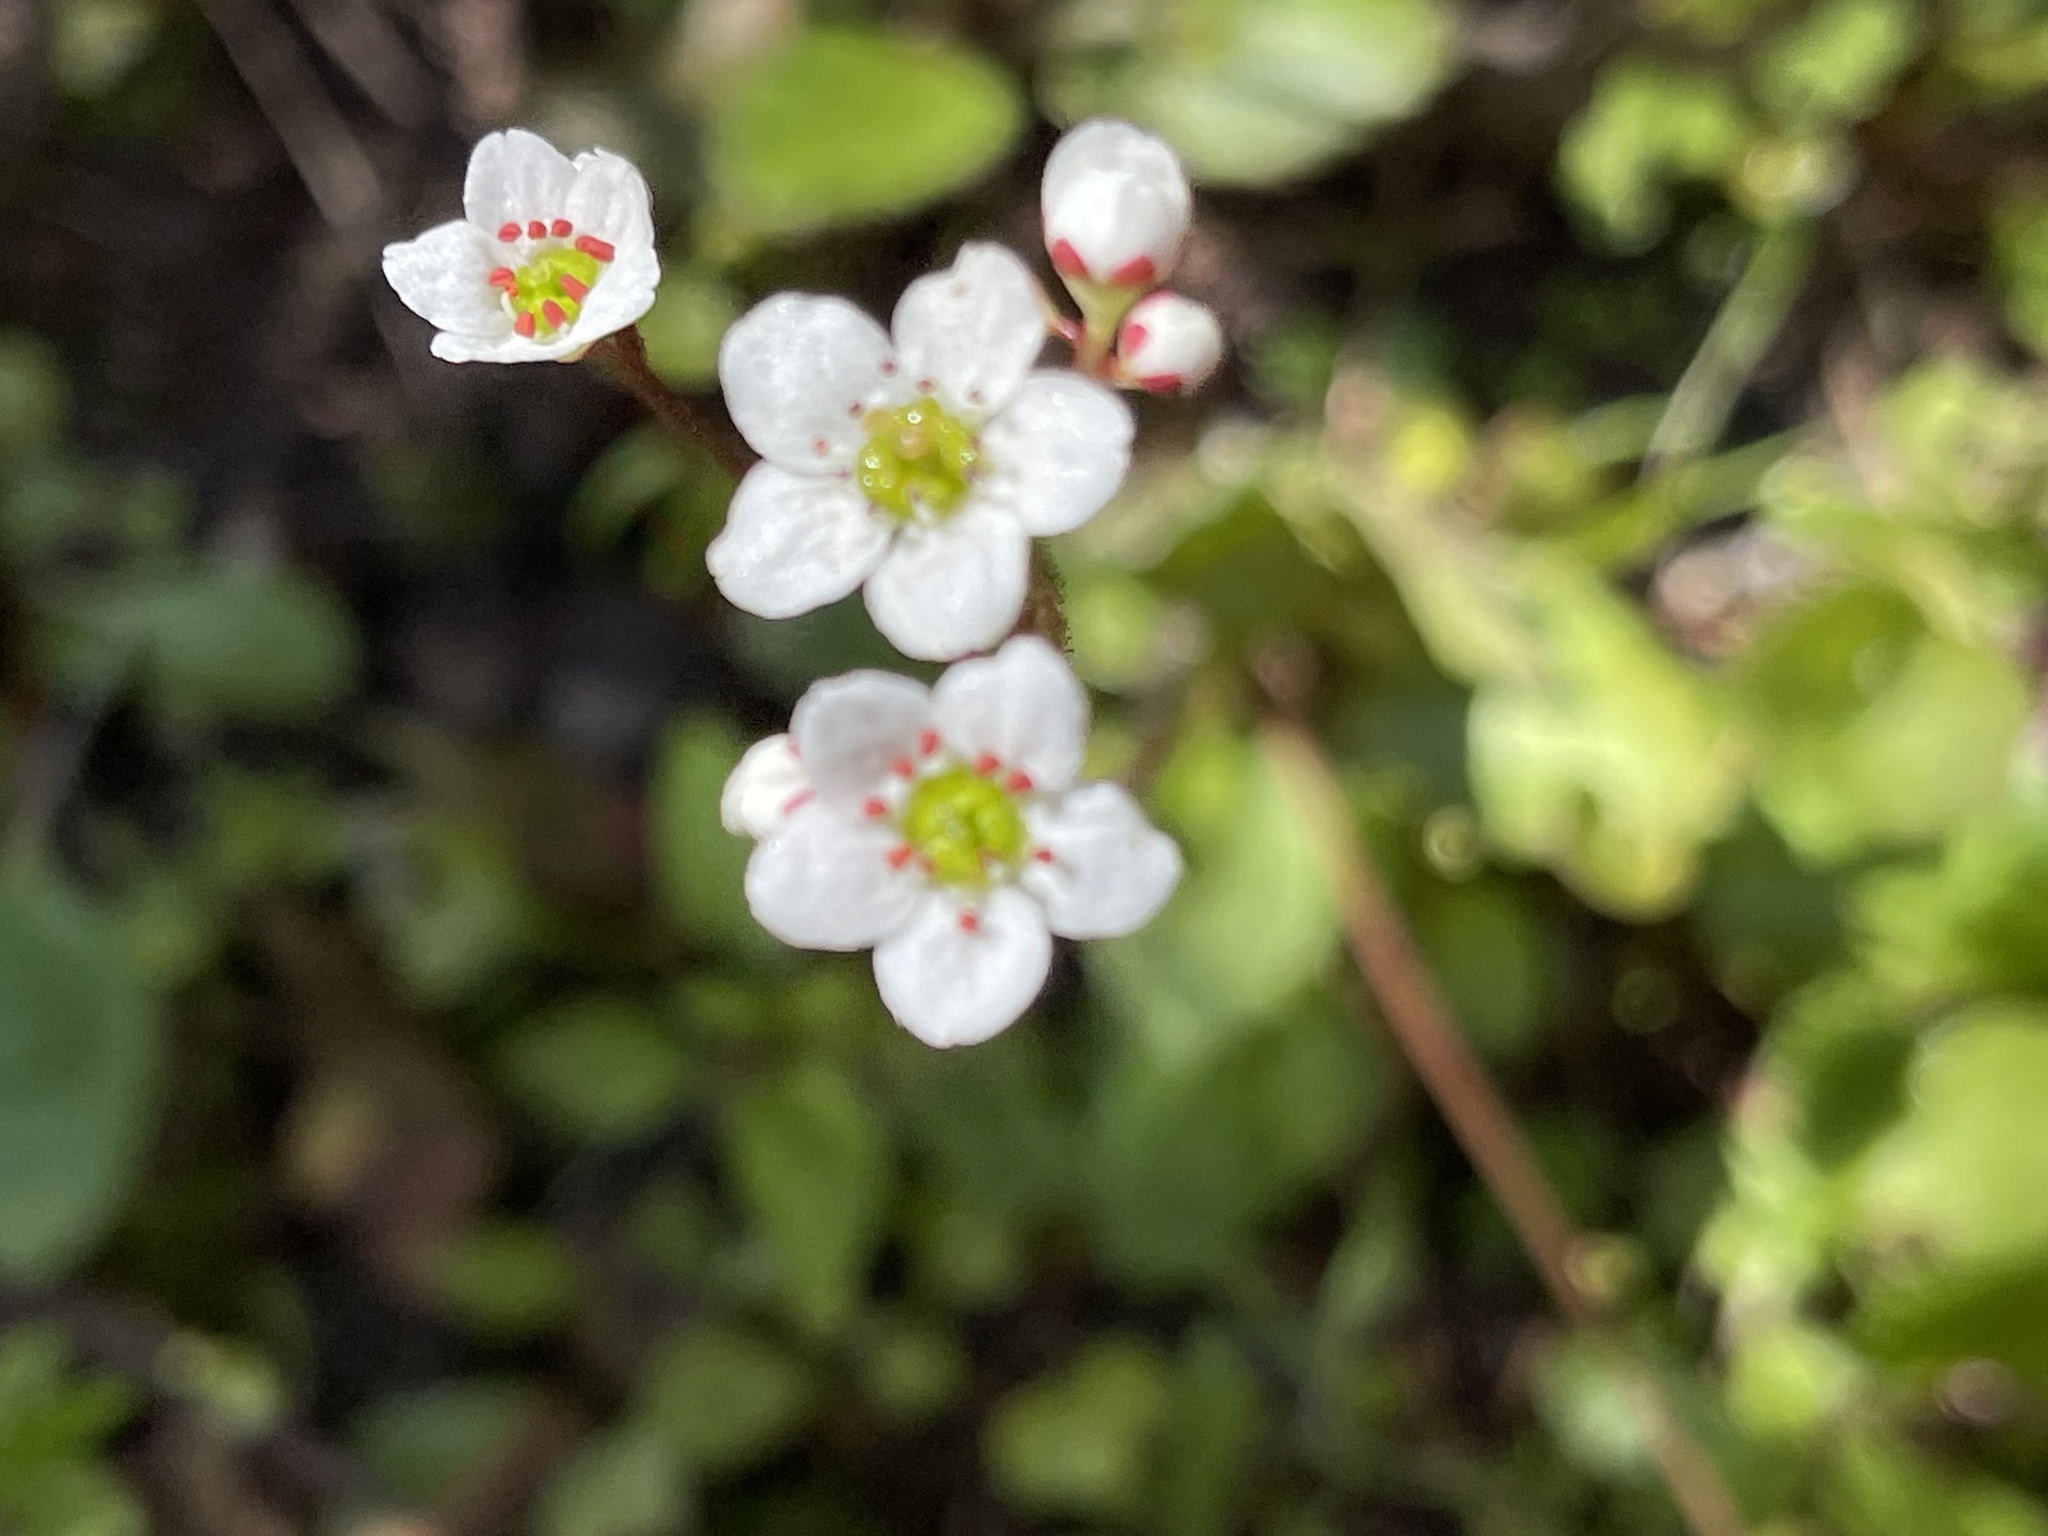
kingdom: Plantae
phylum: Tracheophyta
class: Magnoliopsida
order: Saxifragales
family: Saxifragaceae
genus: Micranthes
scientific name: Micranthes californica
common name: California saxifrage
